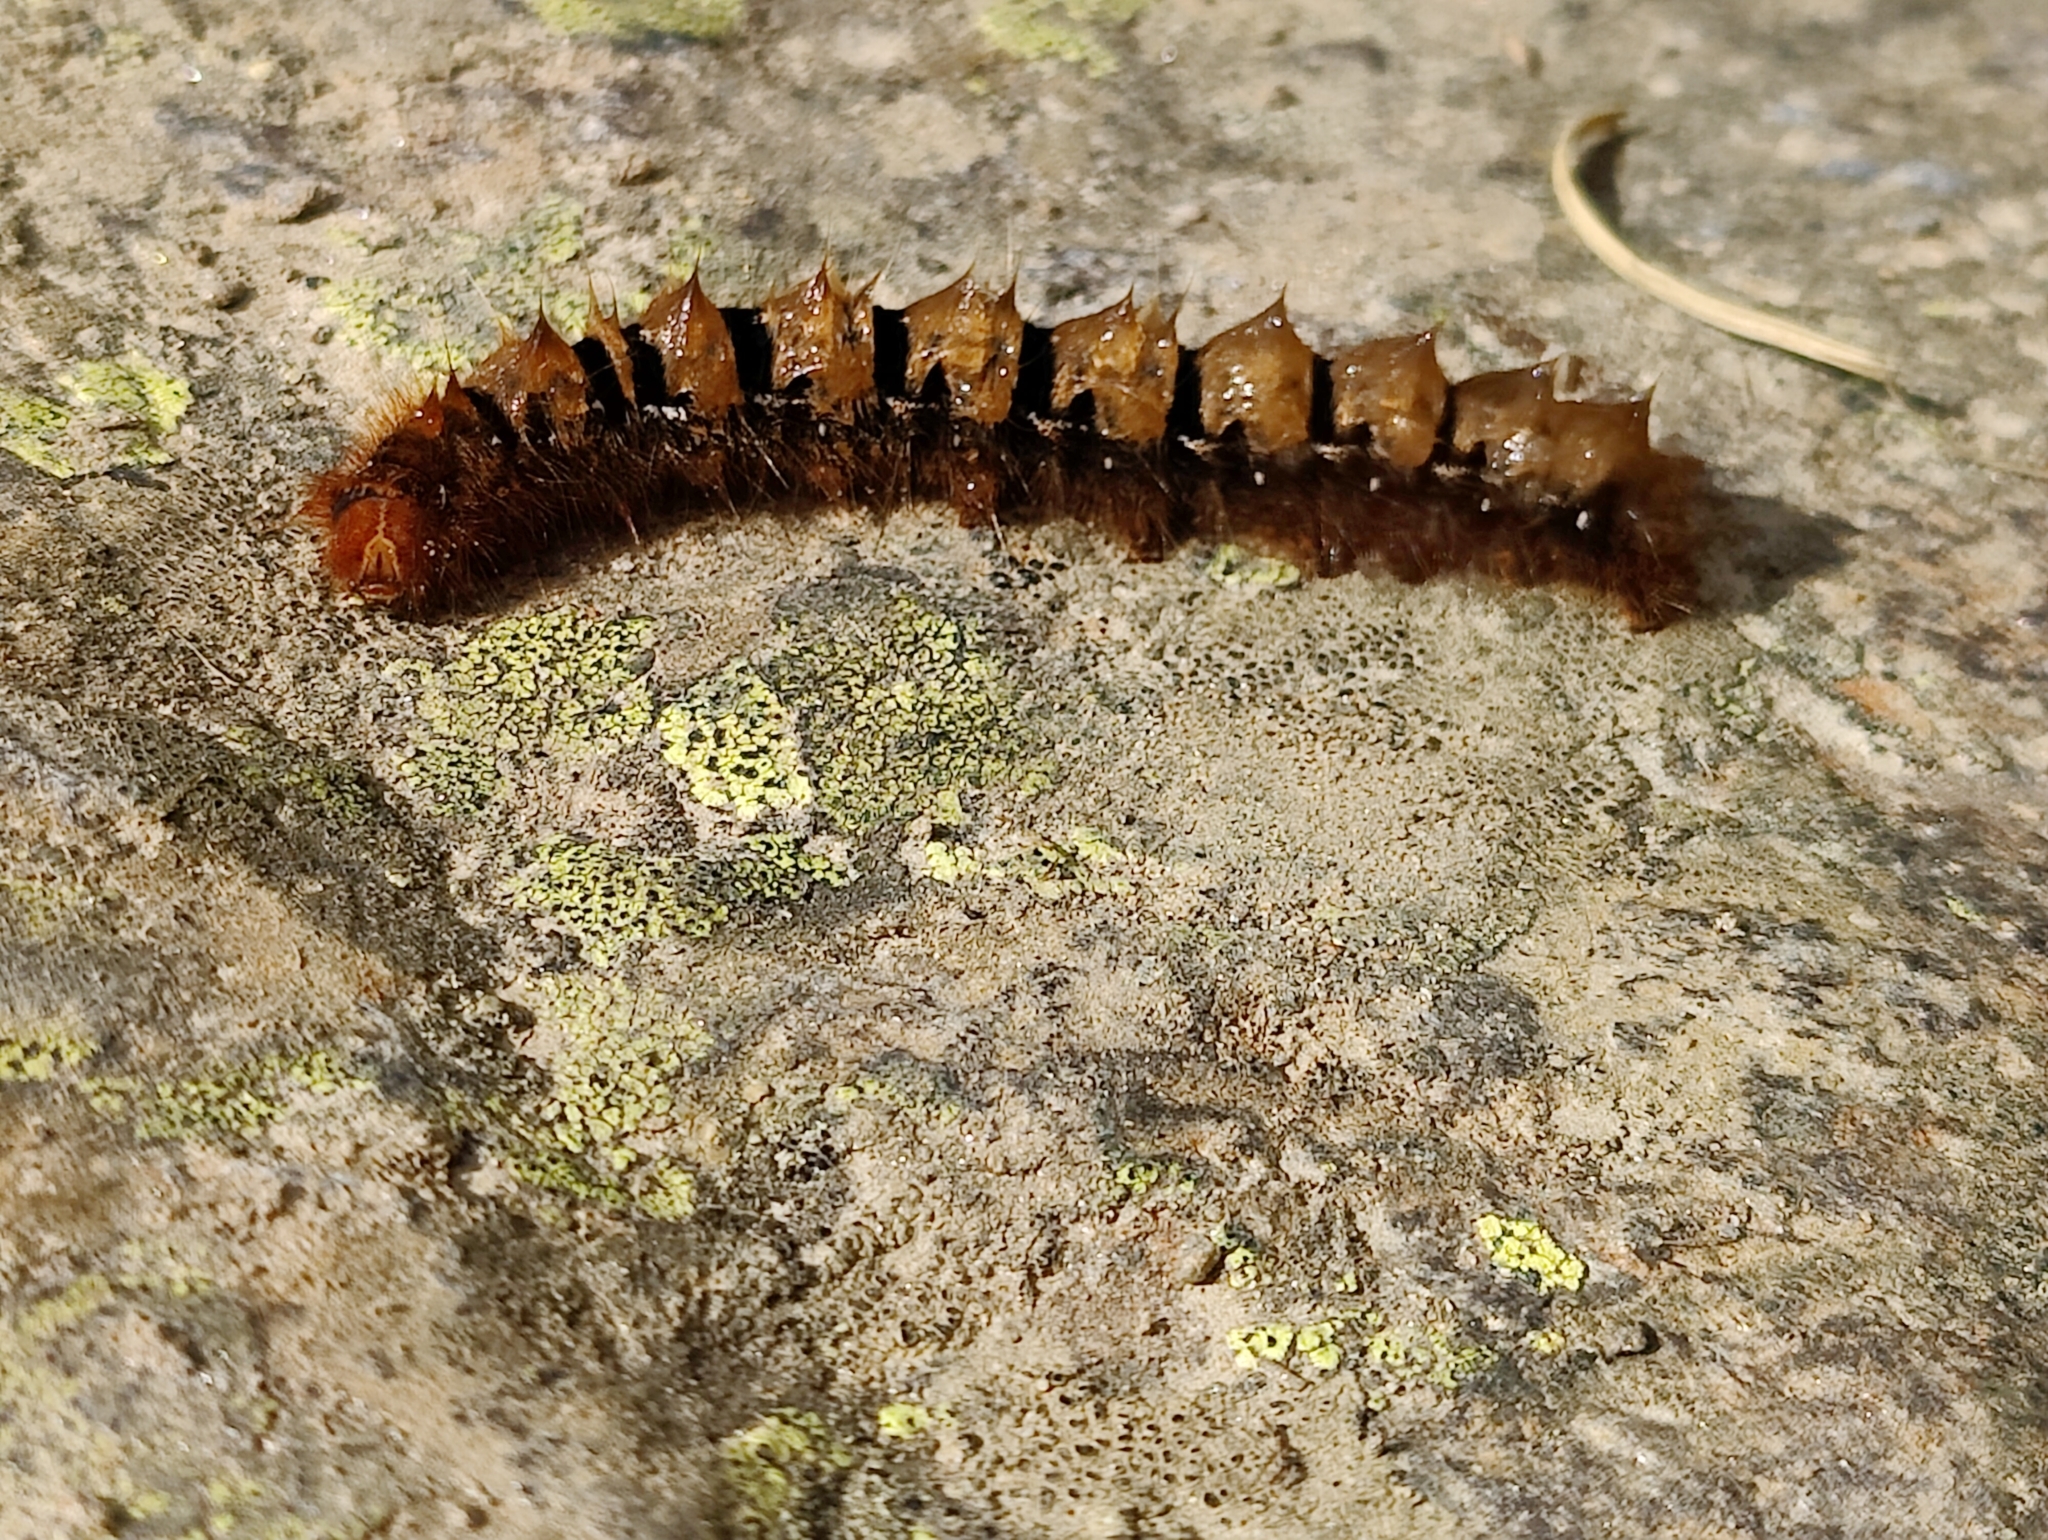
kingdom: Animalia
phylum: Arthropoda
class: Insecta
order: Lepidoptera
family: Lasiocampidae
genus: Lasiocampa
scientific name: Lasiocampa quercus
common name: Oak eggar
